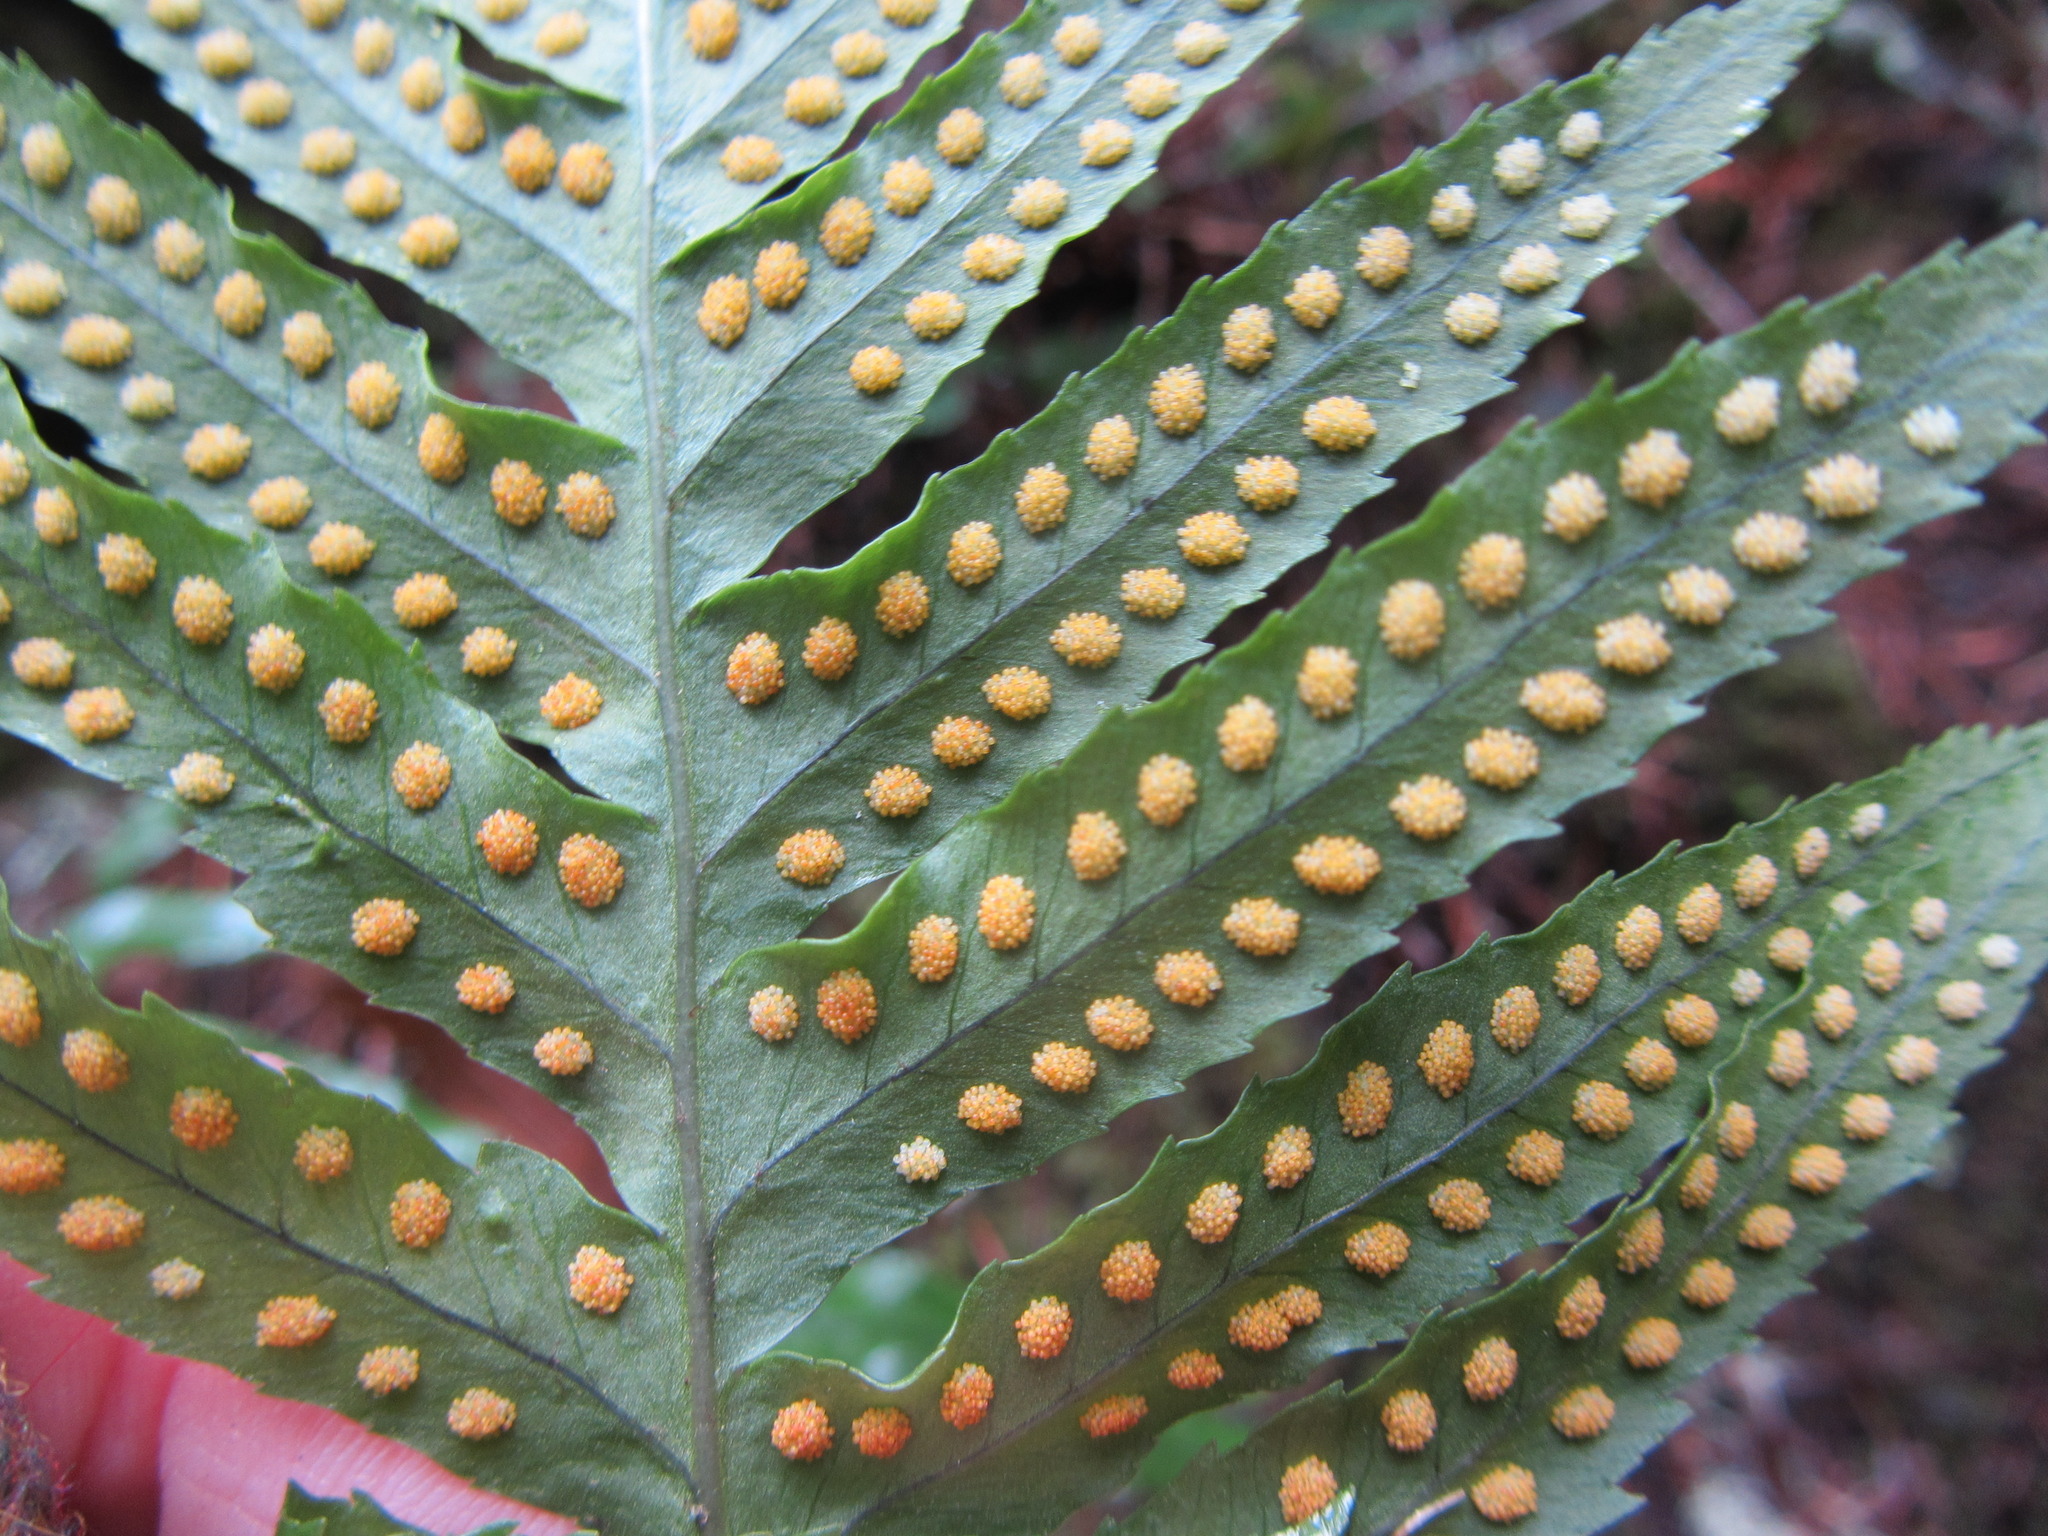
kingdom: Plantae
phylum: Tracheophyta
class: Polypodiopsida
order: Polypodiales
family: Polypodiaceae
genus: Polypodium
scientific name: Polypodium calirhiza
